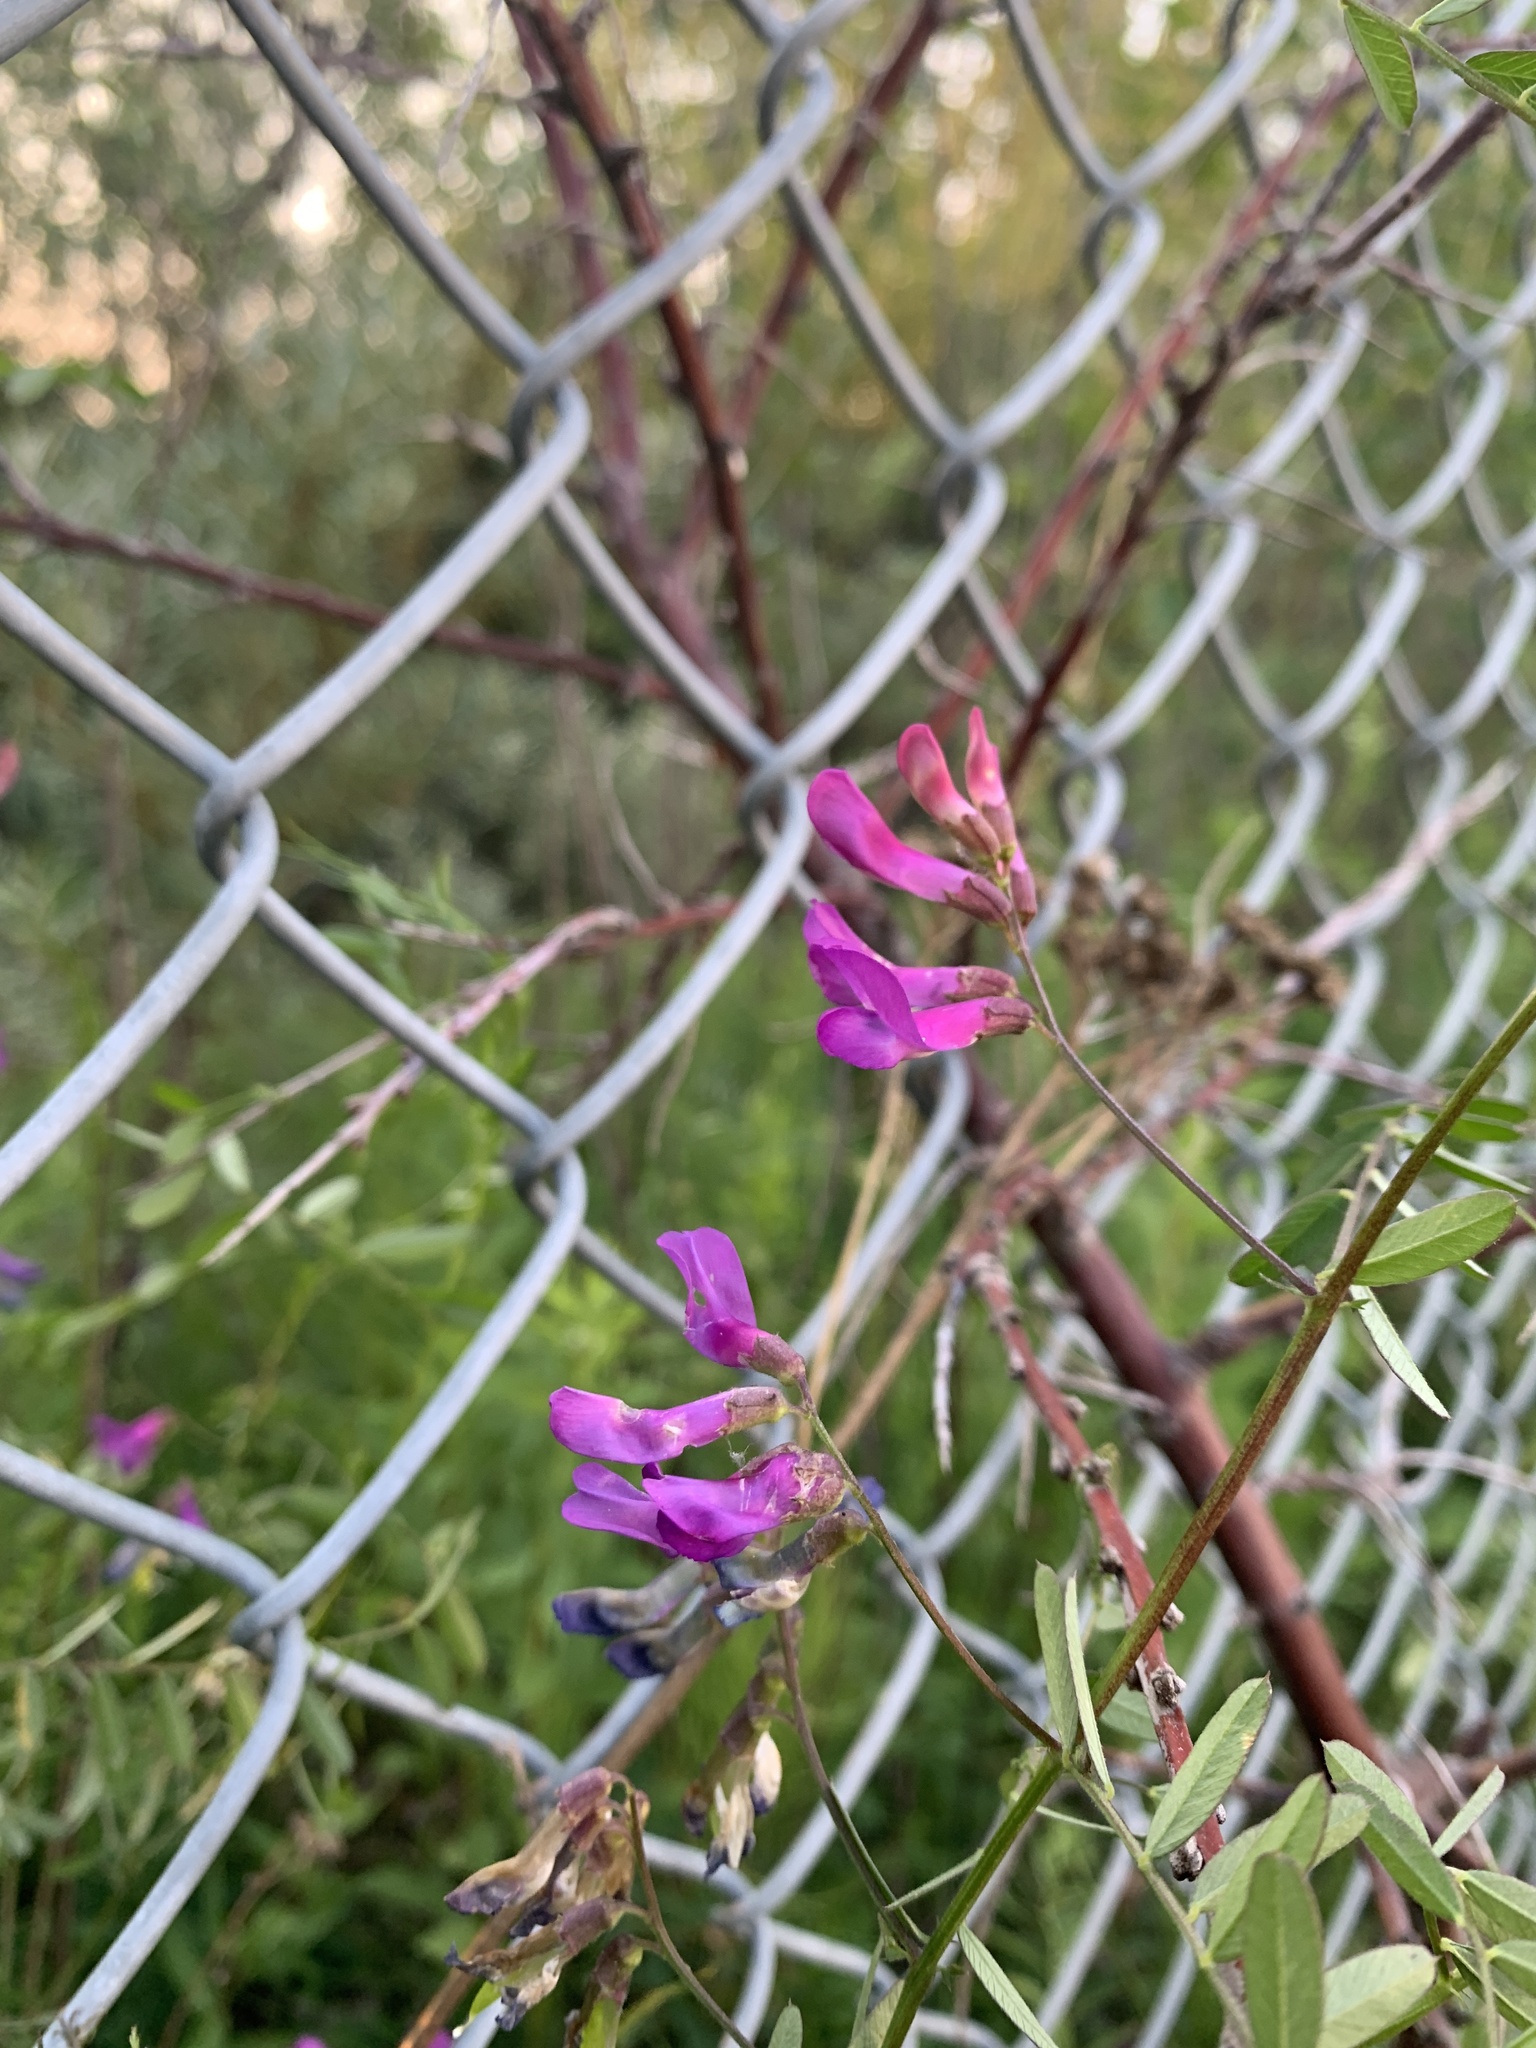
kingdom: Plantae
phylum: Tracheophyta
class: Magnoliopsida
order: Fabales
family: Fabaceae
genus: Vicia
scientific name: Vicia americana
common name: American vetch
